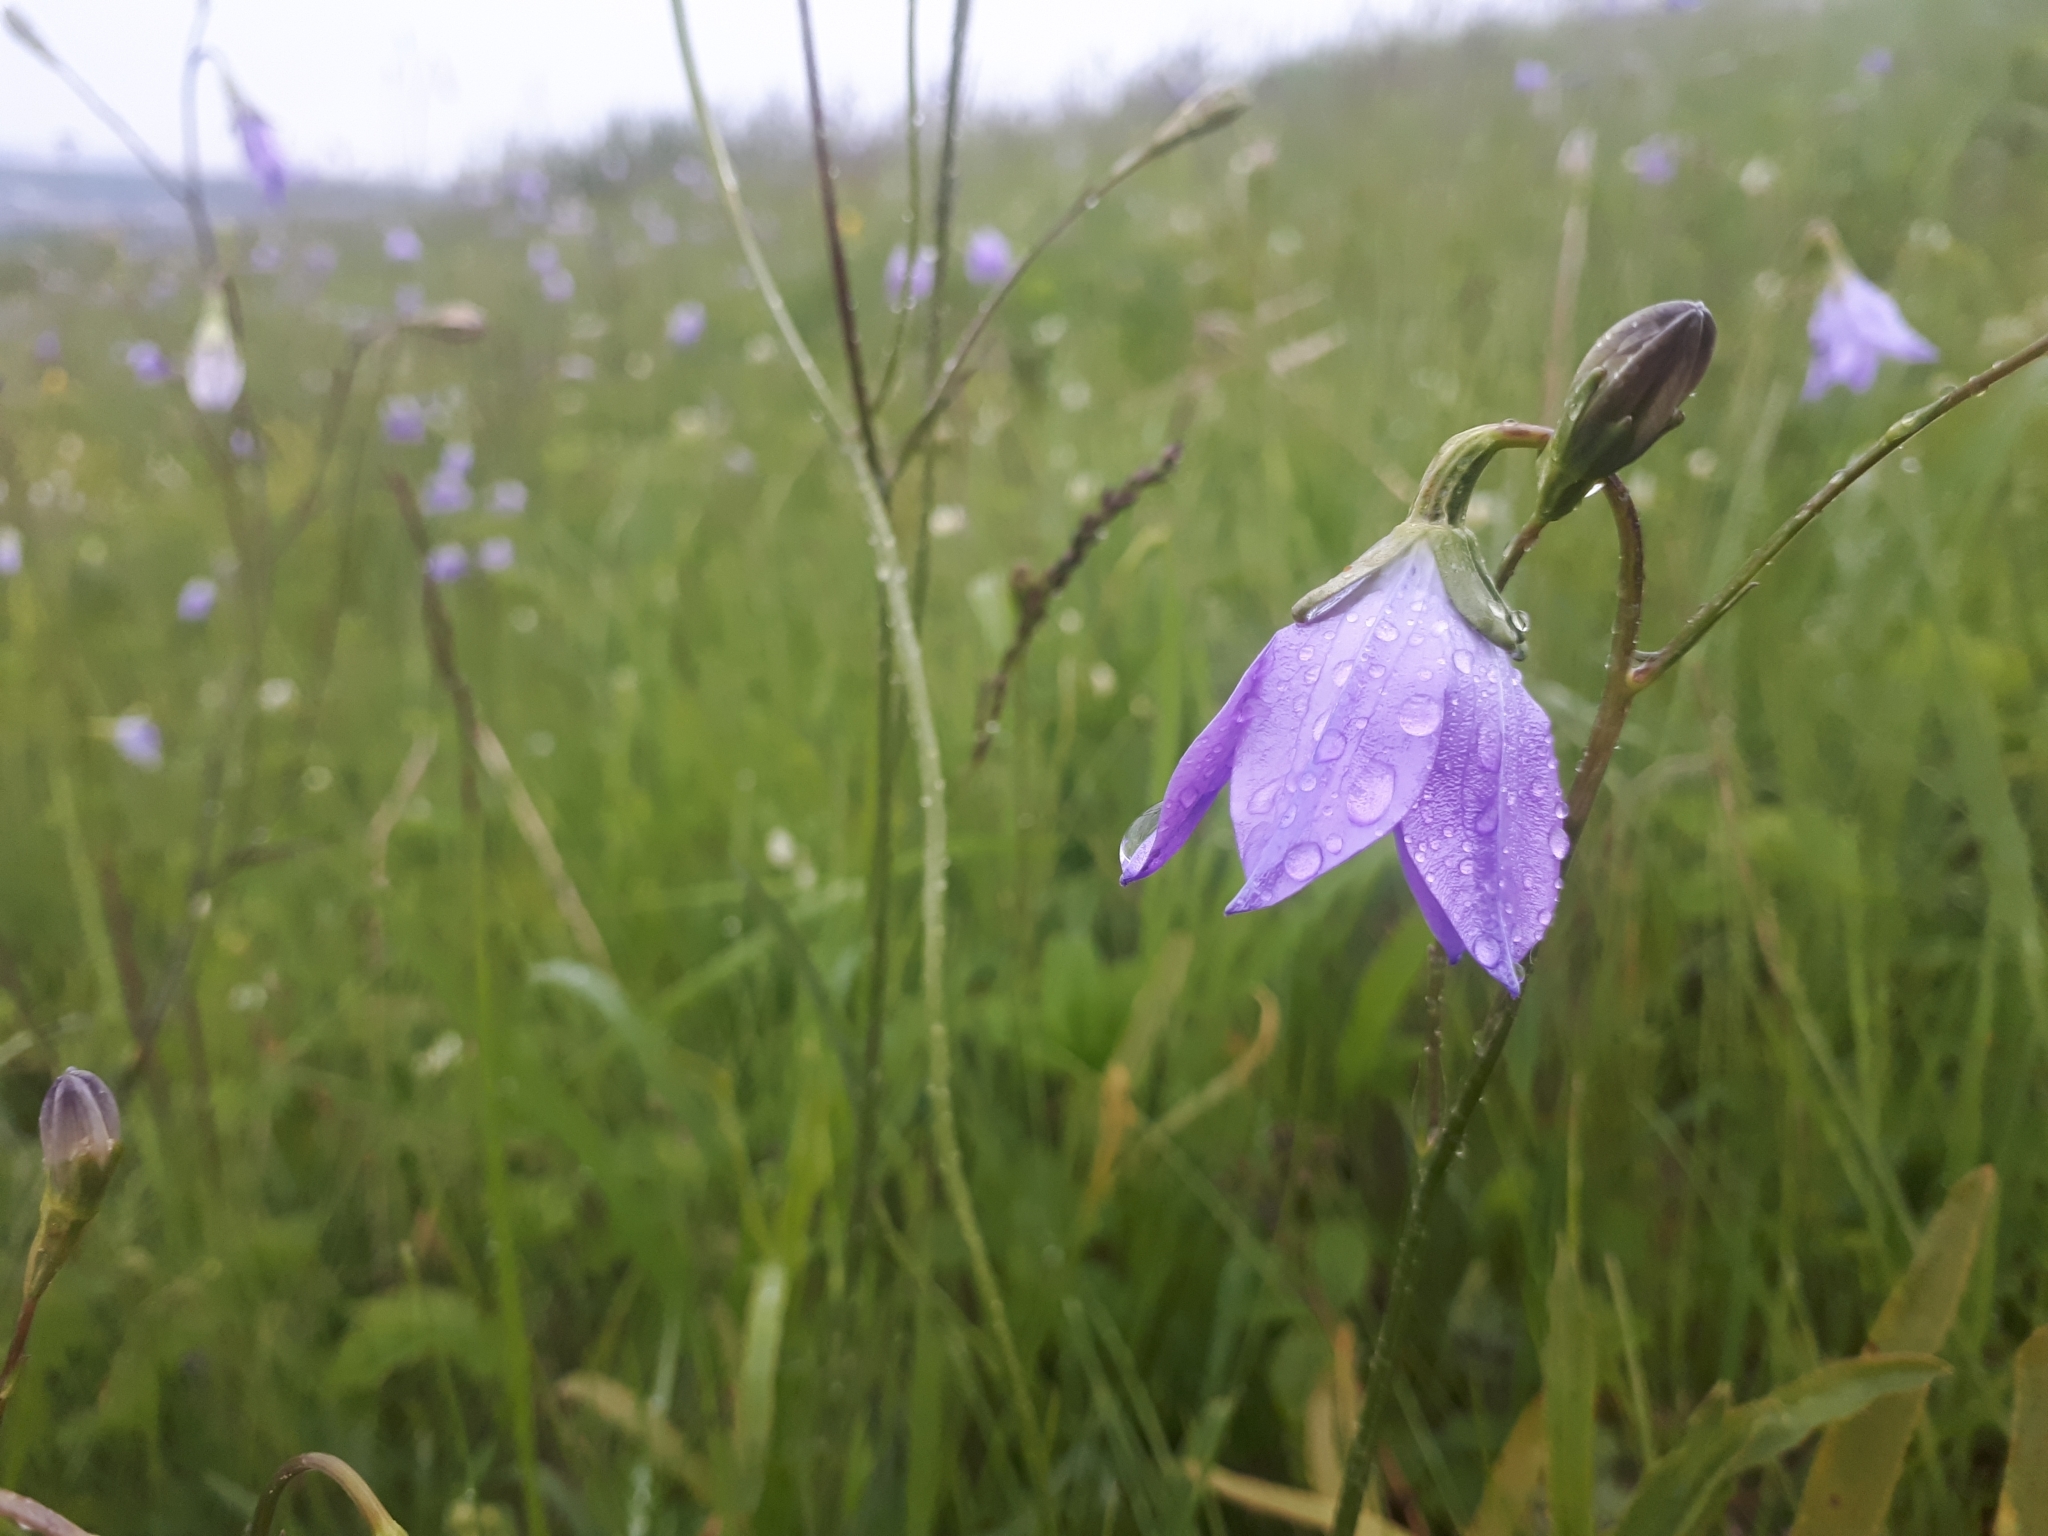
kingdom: Plantae
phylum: Tracheophyta
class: Magnoliopsida
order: Asterales
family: Campanulaceae
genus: Campanula
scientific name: Campanula stevenii
